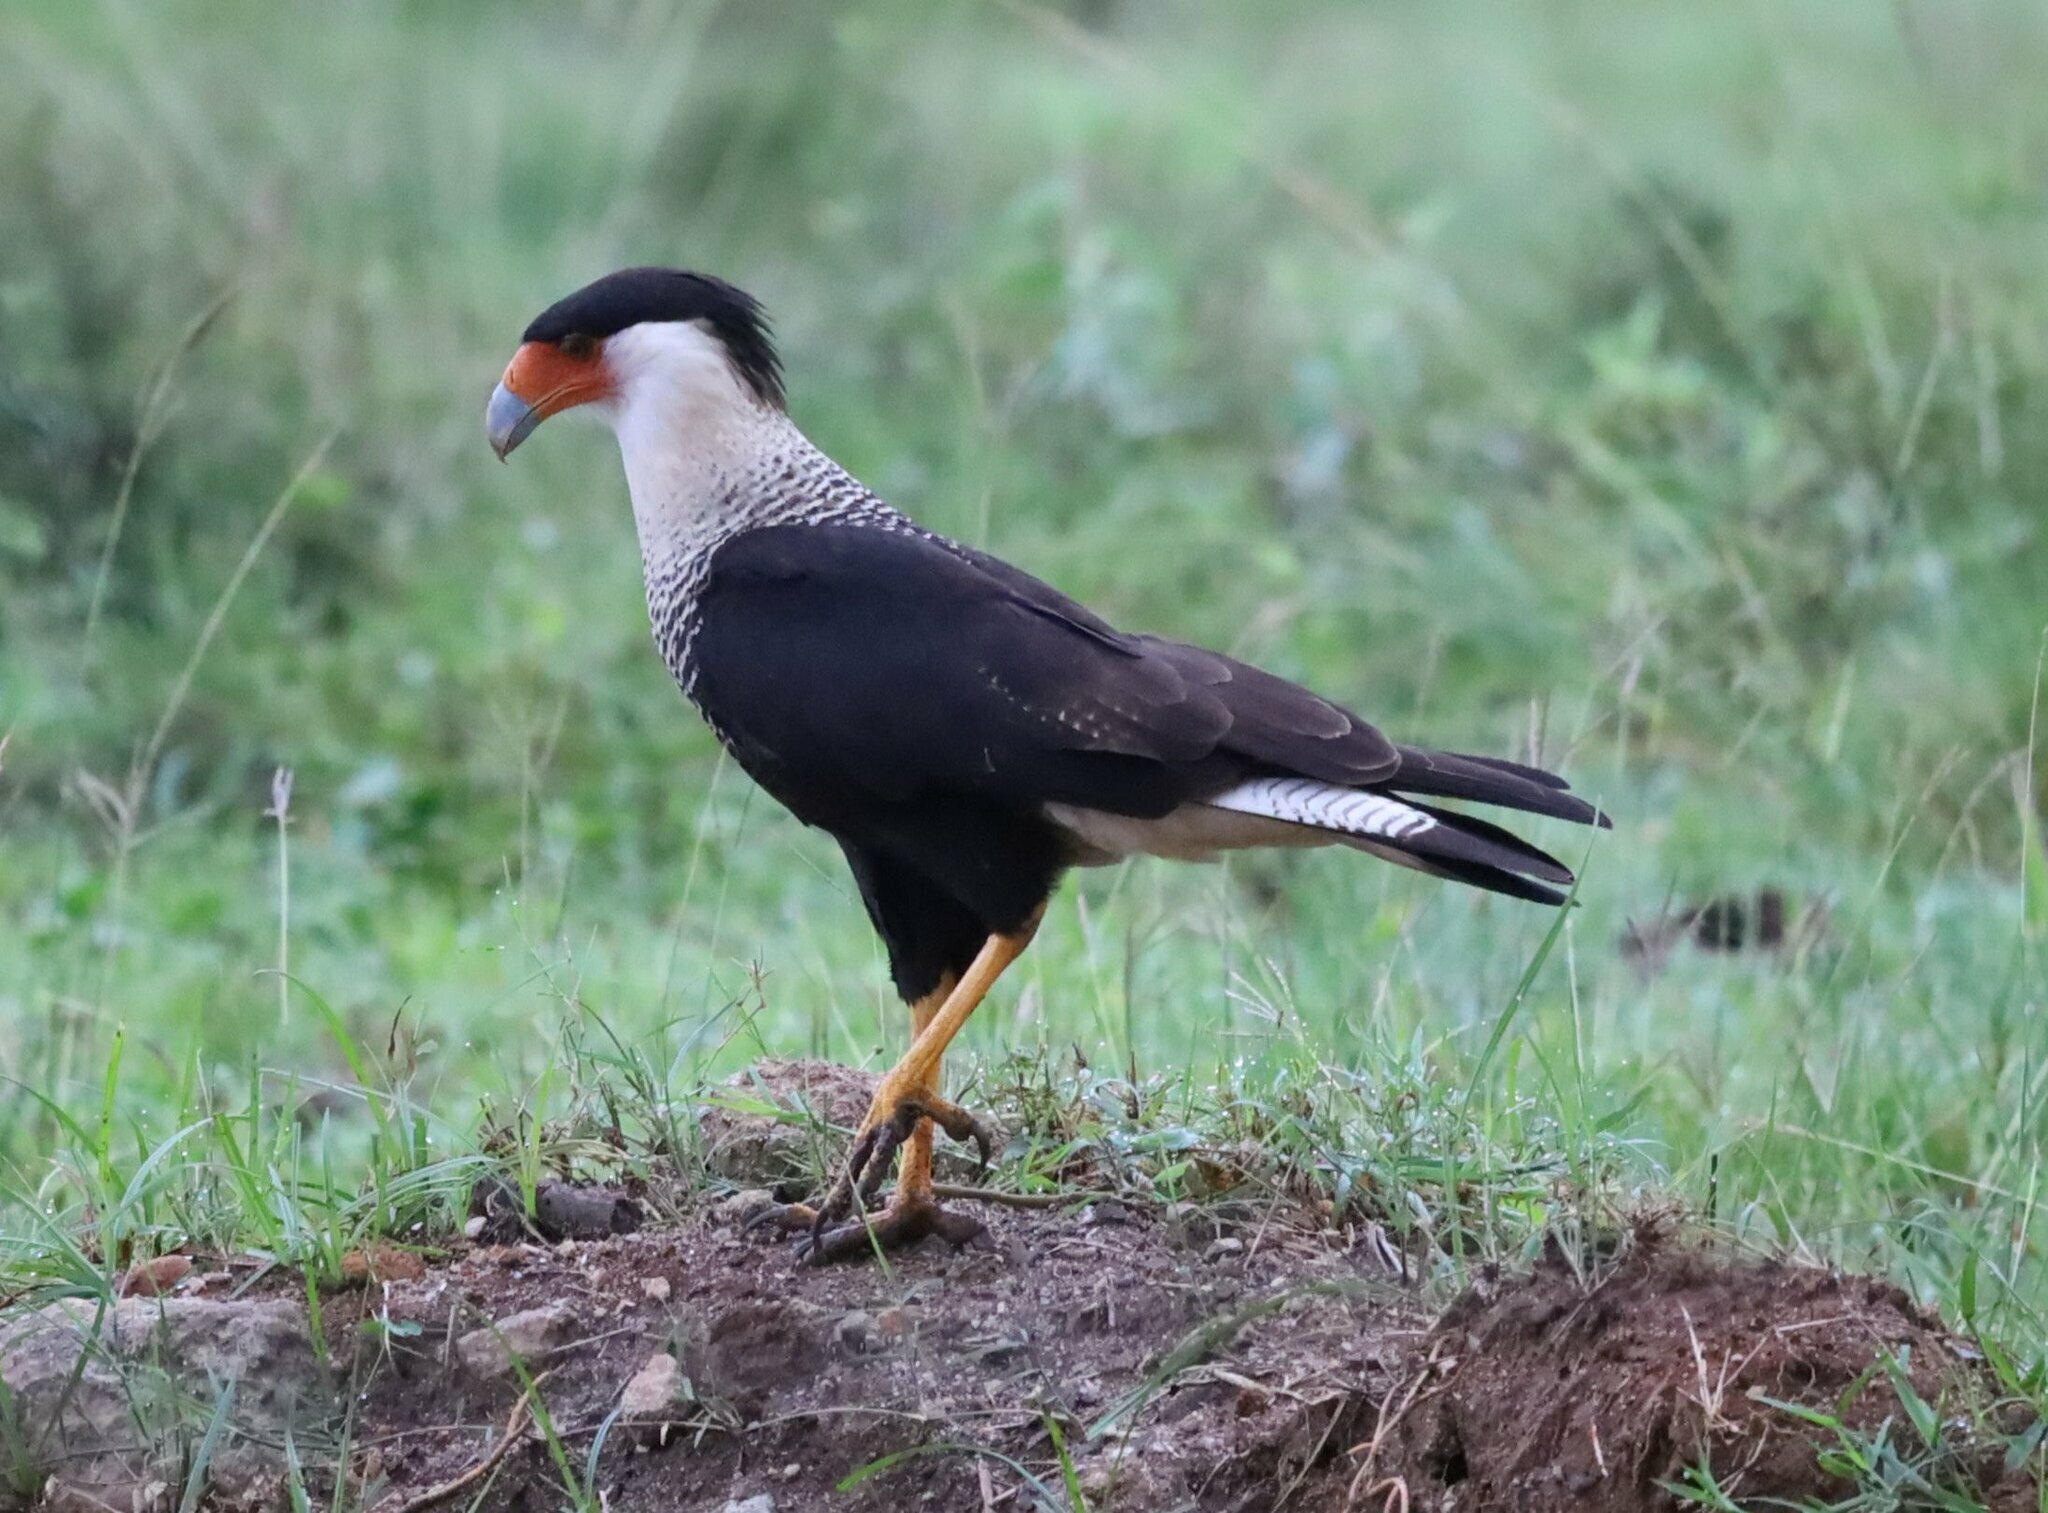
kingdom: Animalia
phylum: Chordata
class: Aves
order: Falconiformes
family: Falconidae
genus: Caracara
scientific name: Caracara plancus
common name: Southern caracara
